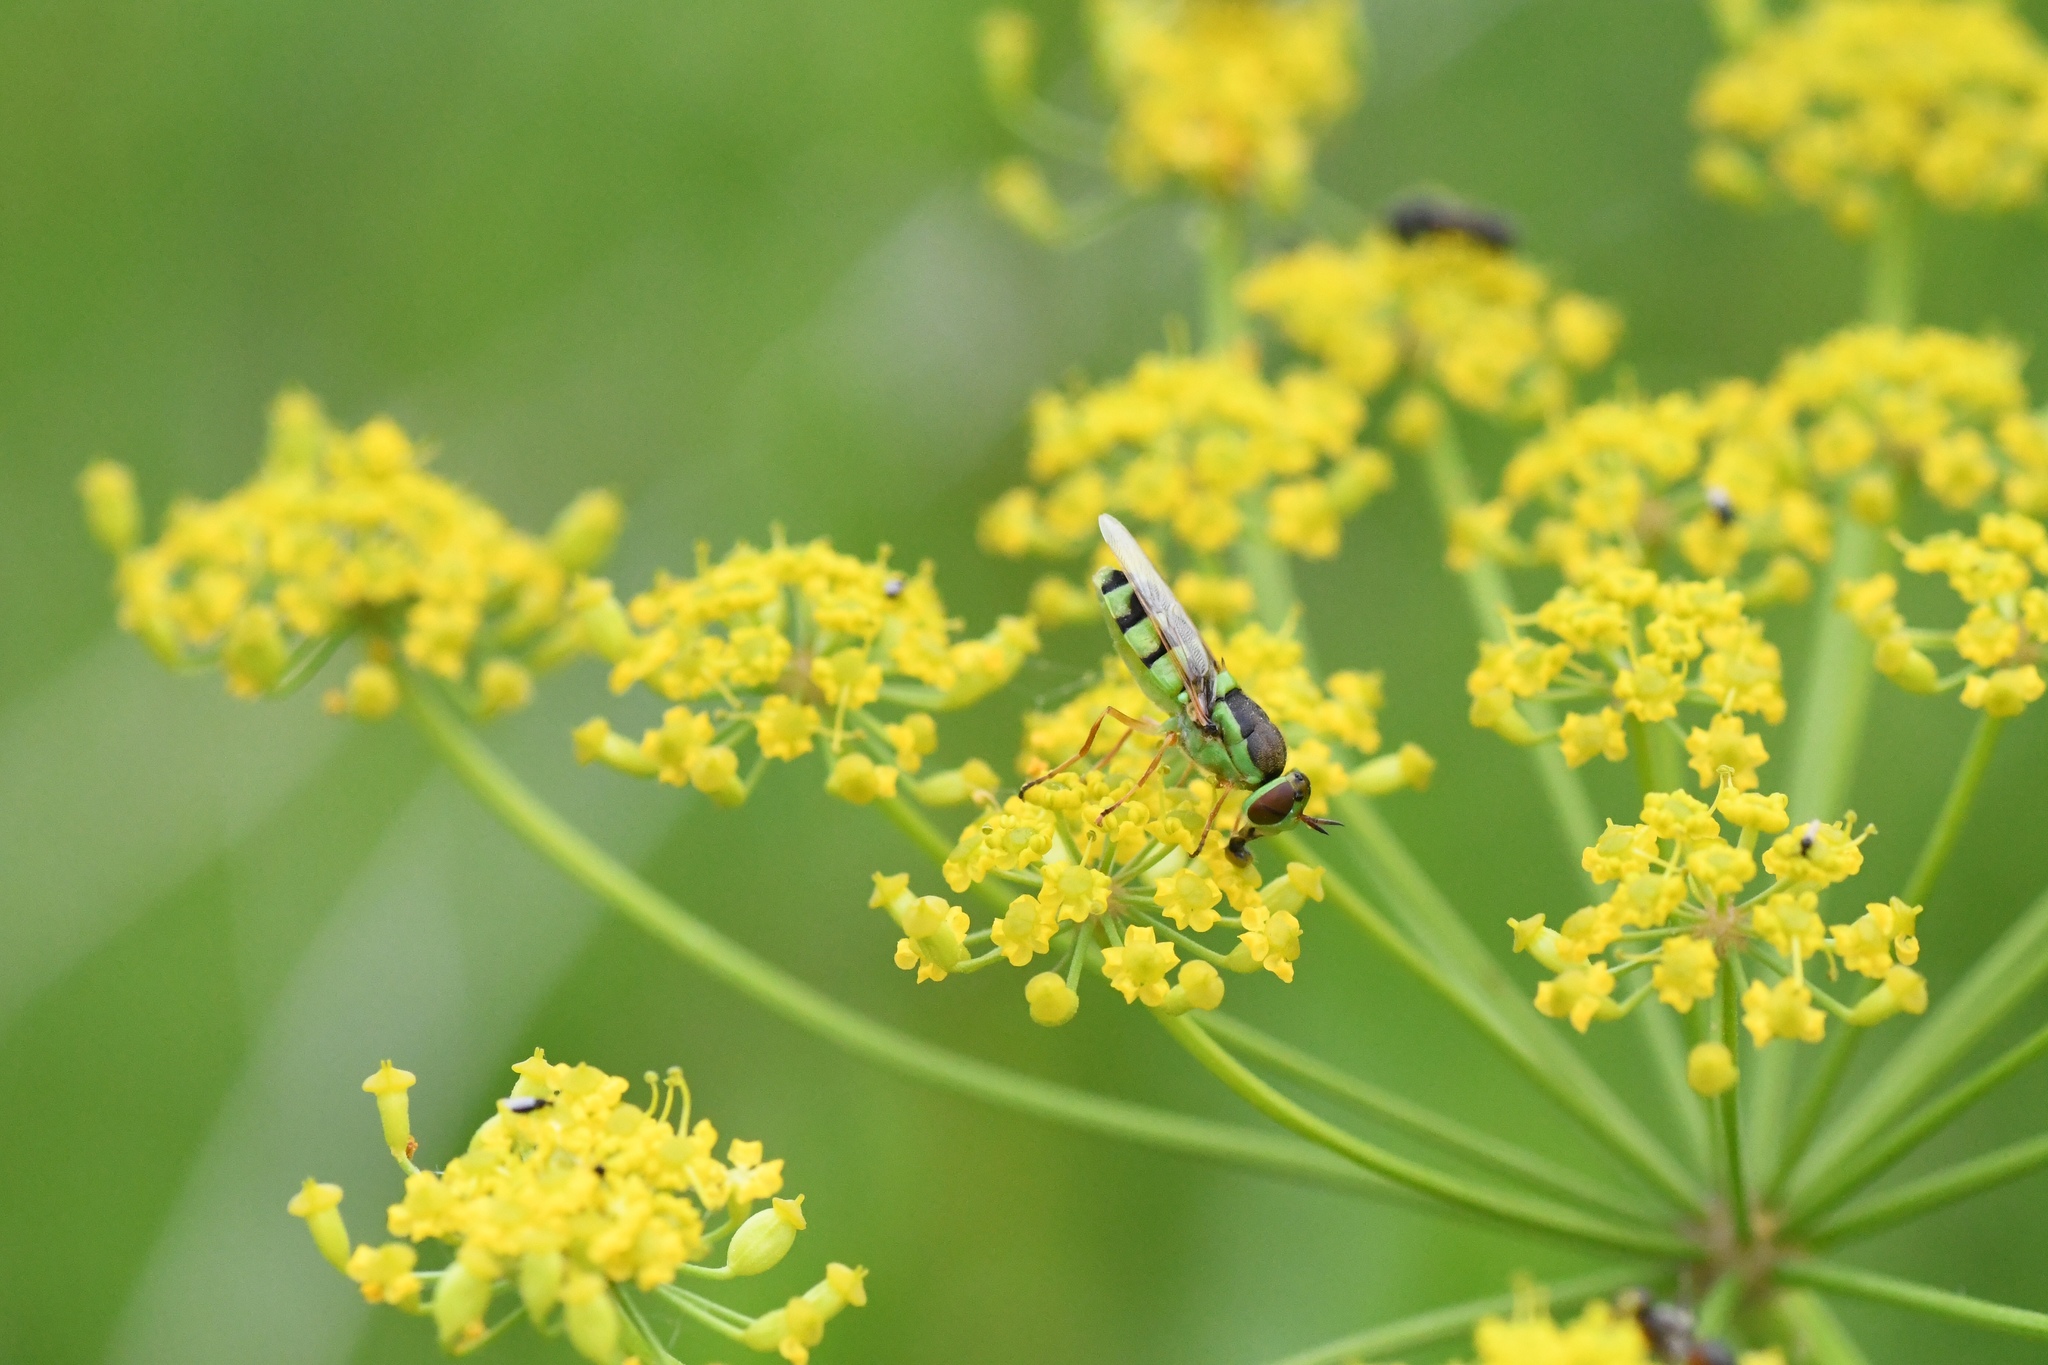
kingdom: Animalia
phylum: Arthropoda
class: Insecta
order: Diptera
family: Stratiomyidae
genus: Odontomyia
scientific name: Odontomyia cincta
